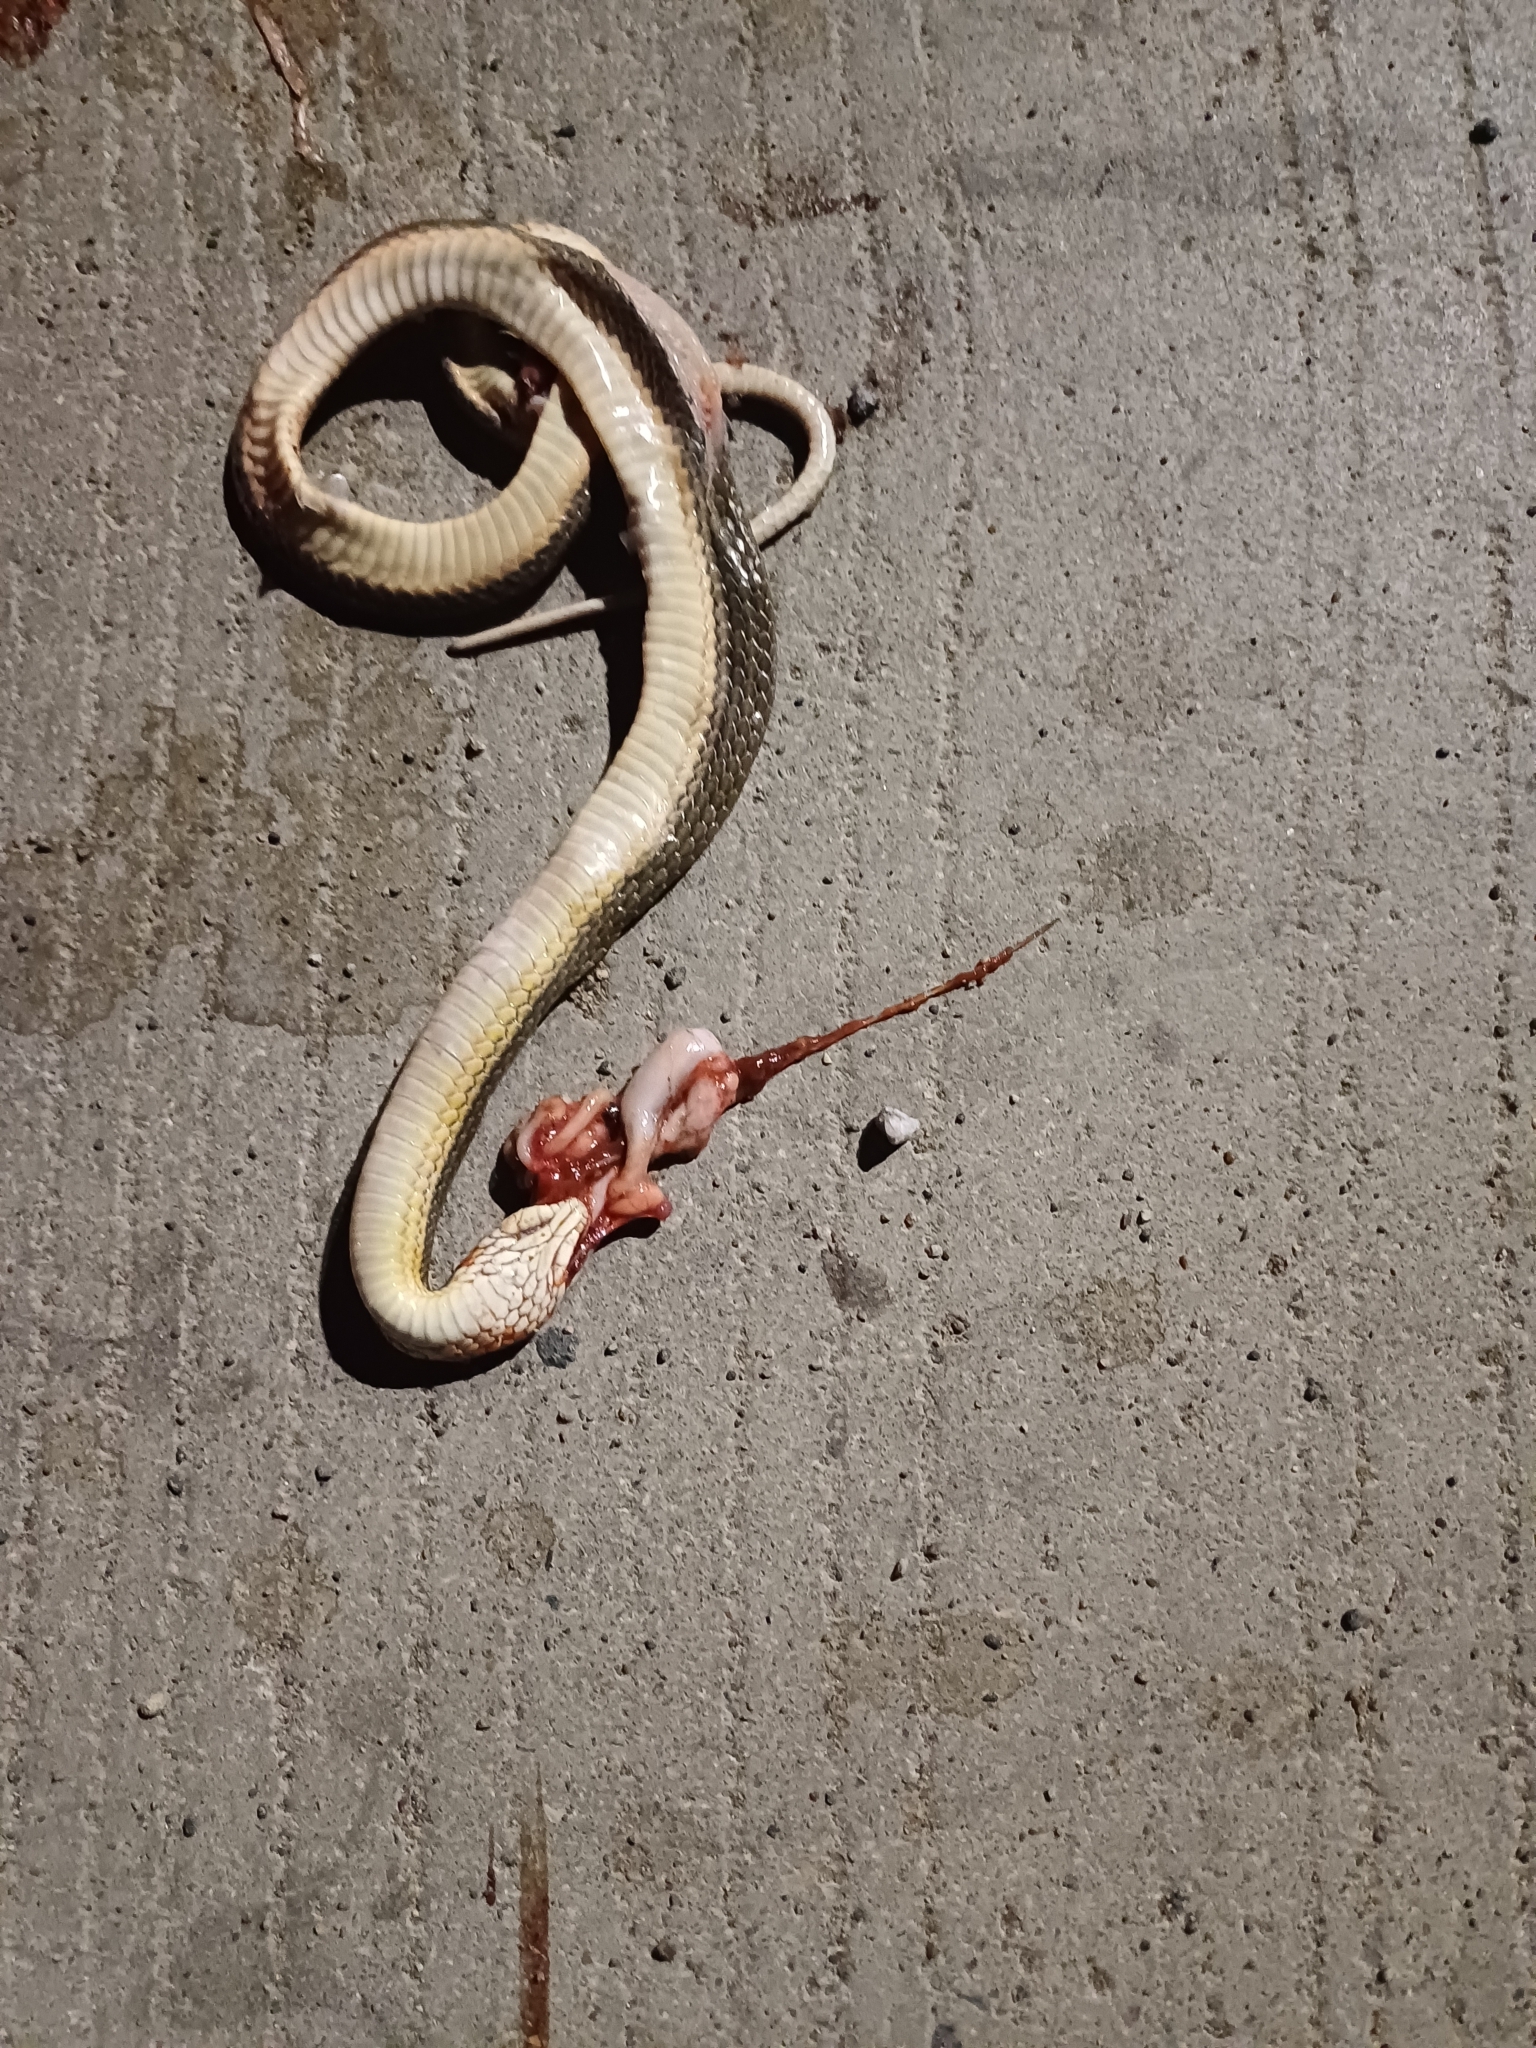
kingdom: Animalia
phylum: Chordata
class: Squamata
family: Colubridae
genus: Atretium
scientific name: Atretium schistosum
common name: Olive keelback wart snake
